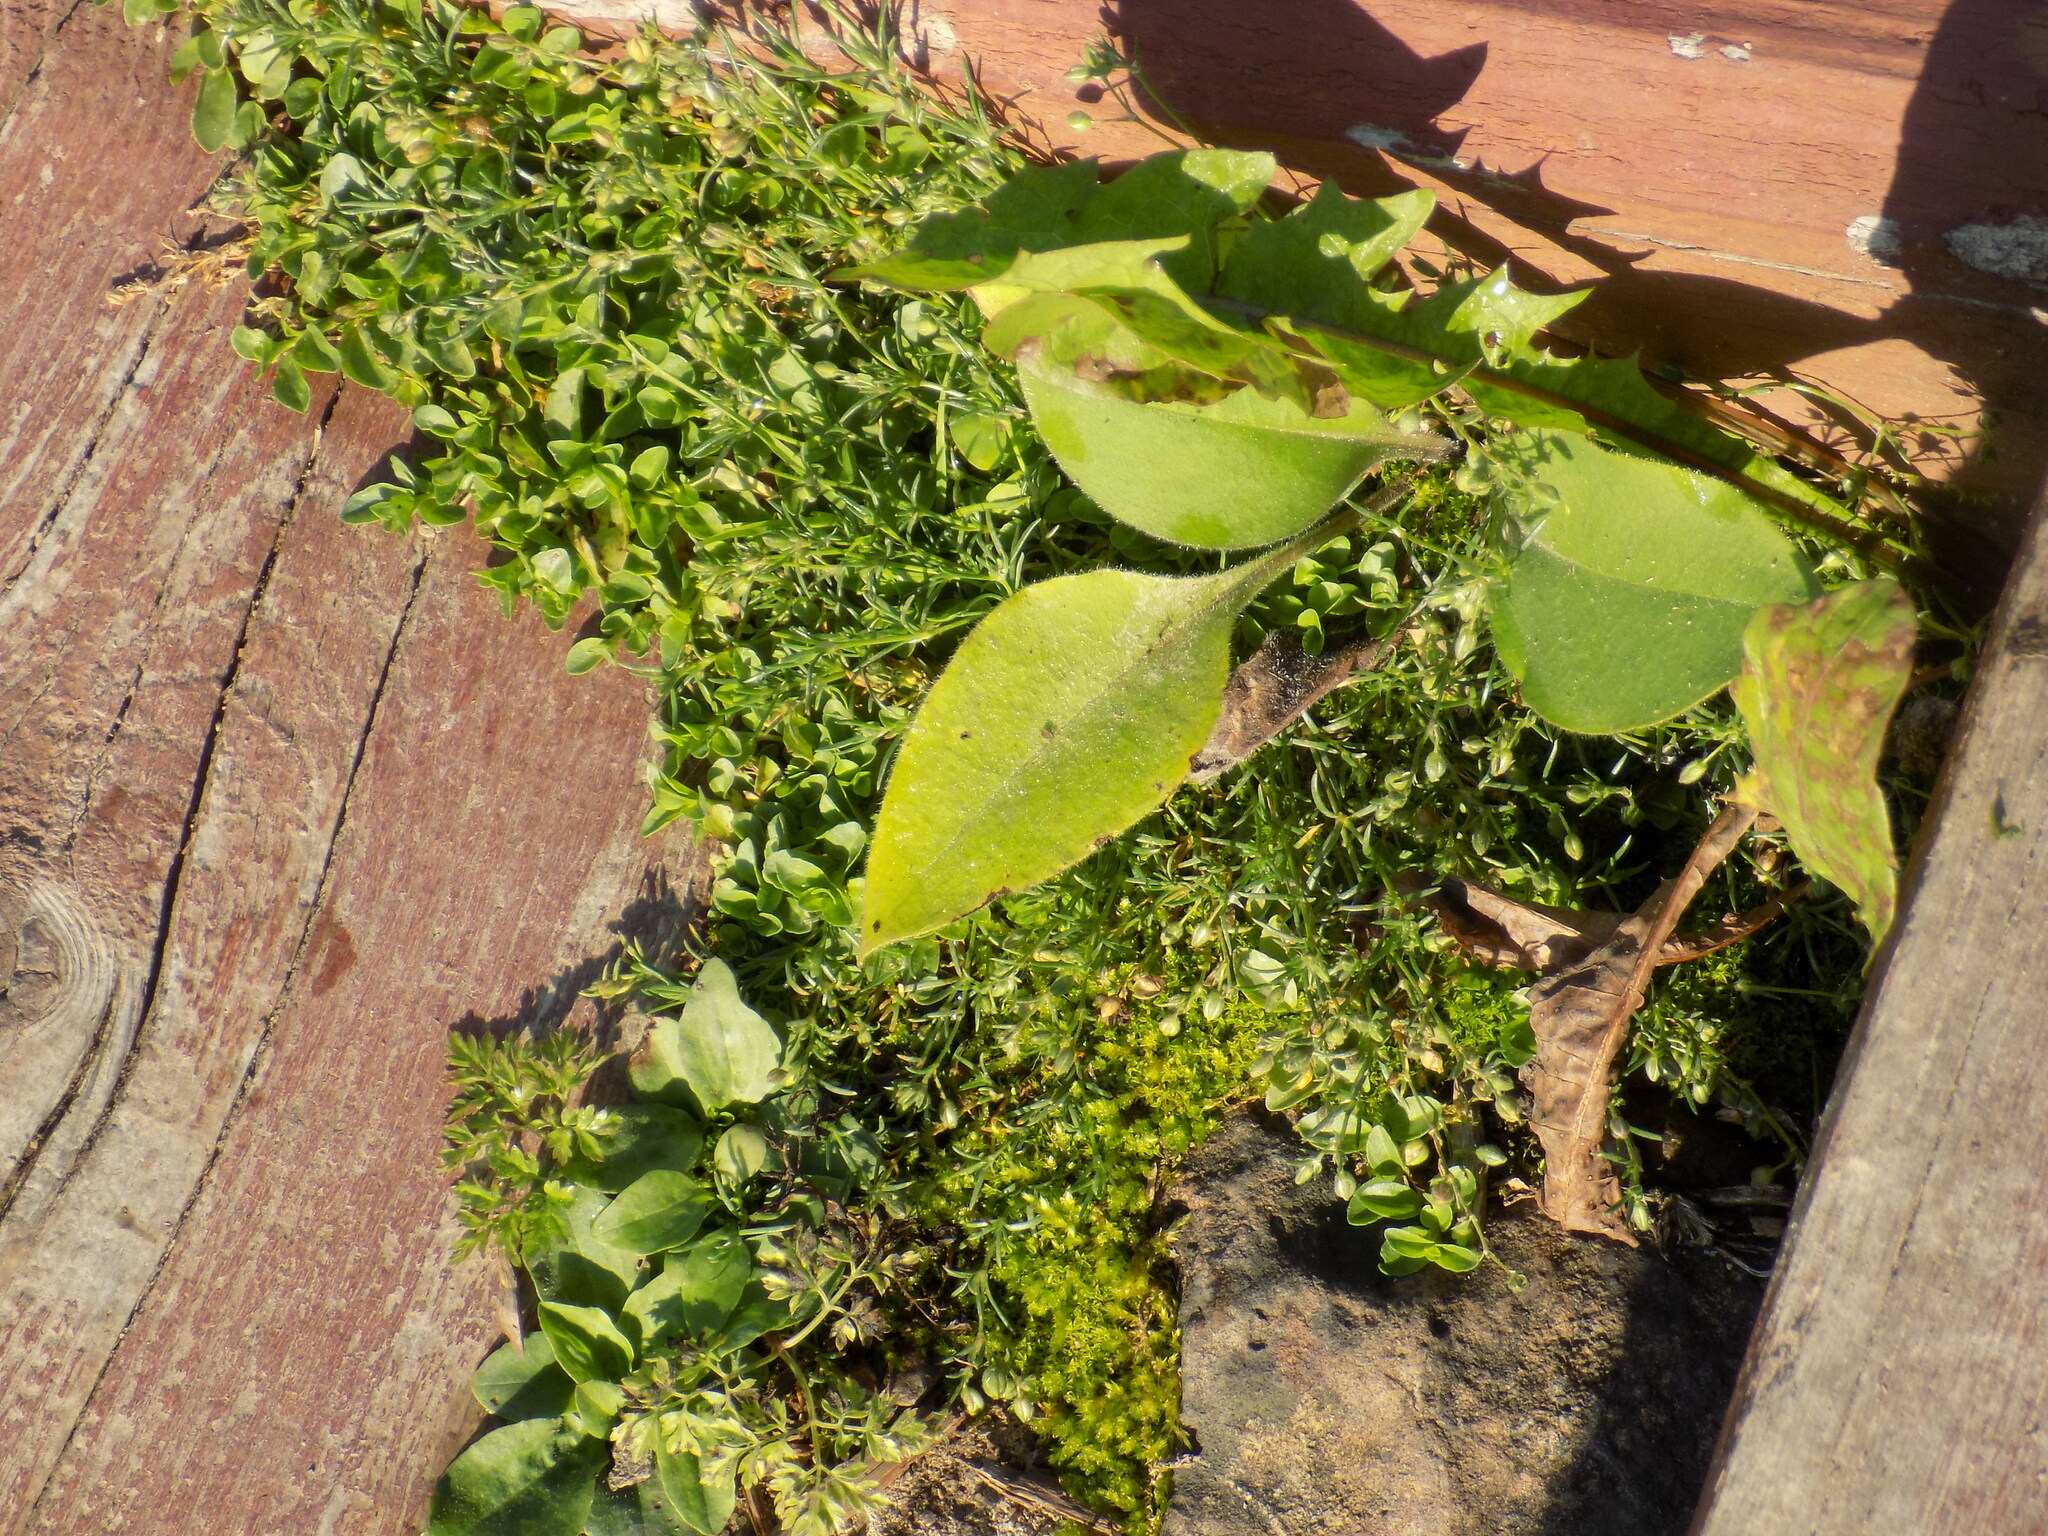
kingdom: Plantae
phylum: Tracheophyta
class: Magnoliopsida
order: Lamiales
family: Plantaginaceae
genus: Veronica
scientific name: Veronica serpyllifolia
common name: Thyme-leaved speedwell
